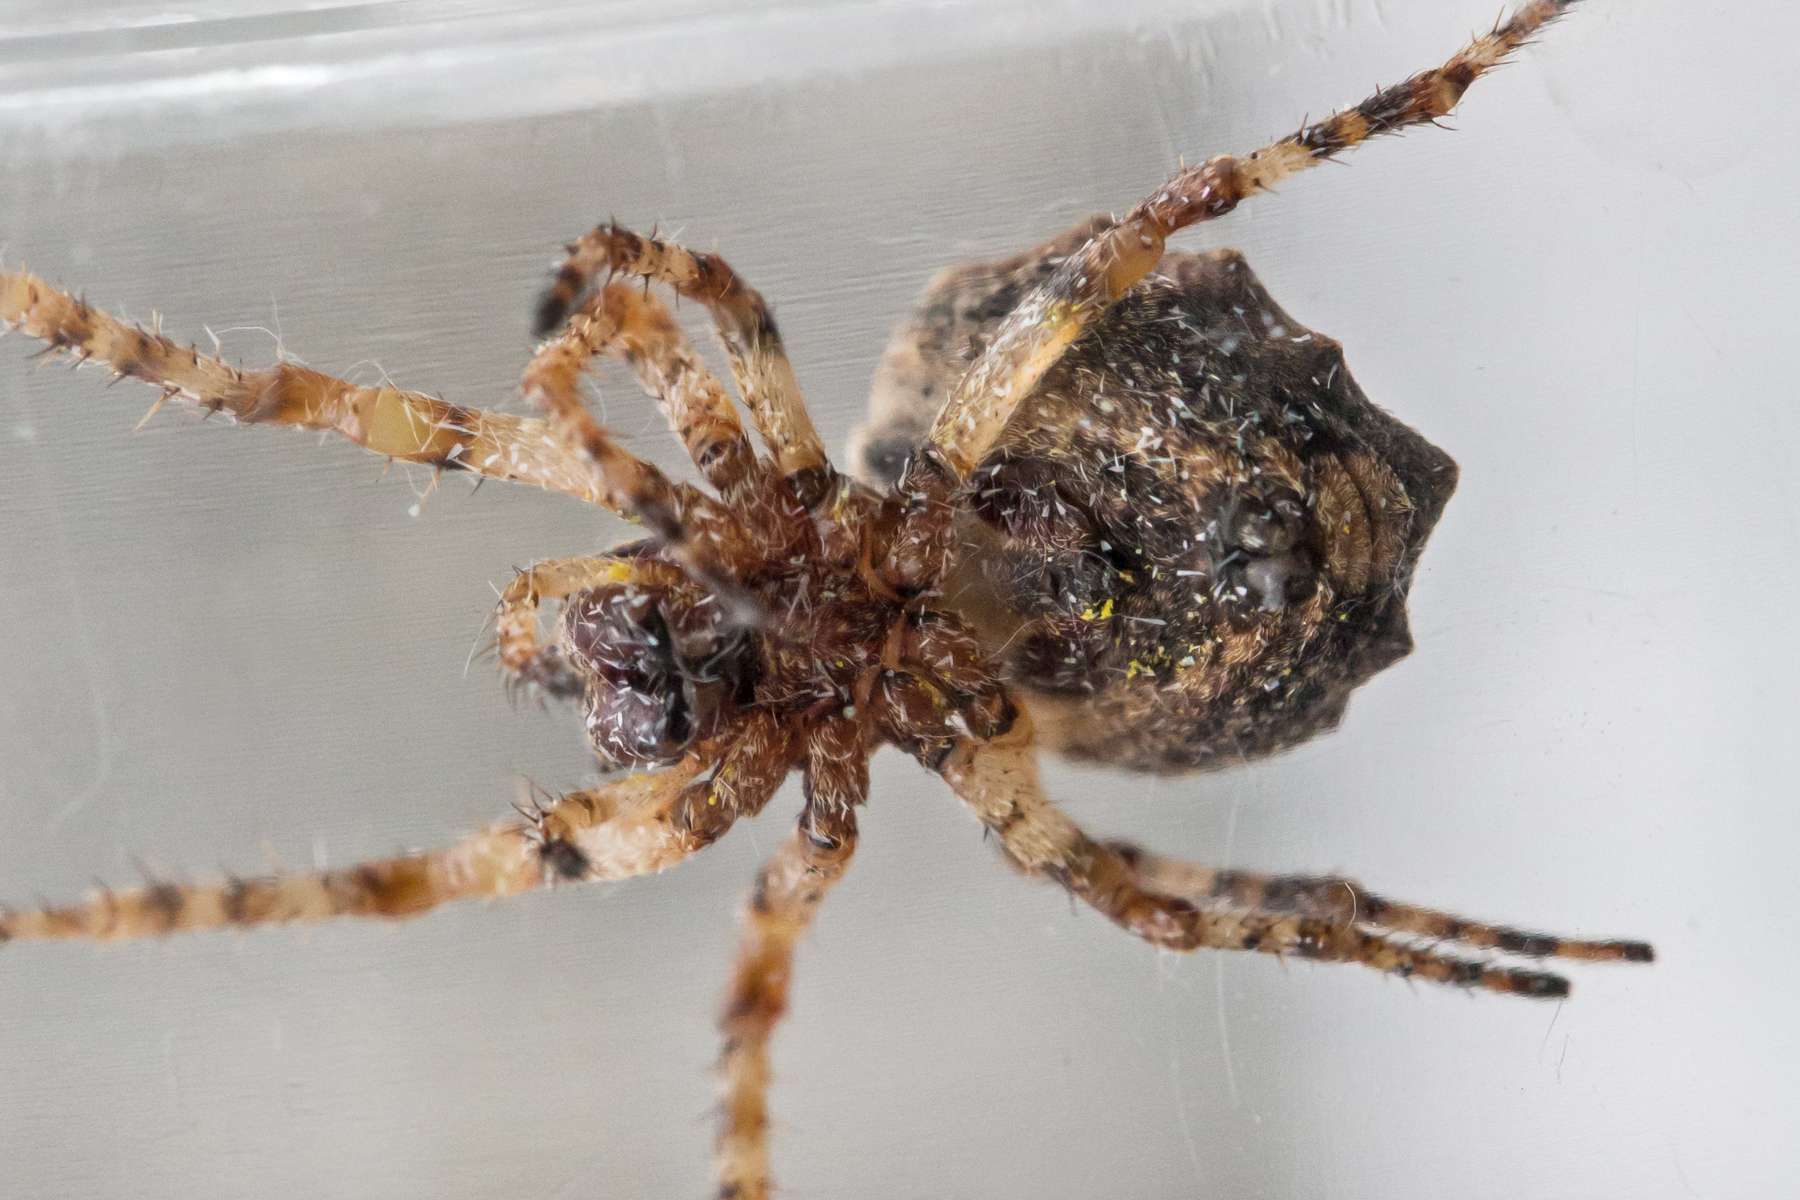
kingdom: Animalia
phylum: Arthropoda
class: Arachnida
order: Araneae
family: Araneidae
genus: Acanthepeira
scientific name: Acanthepeira cherokee
